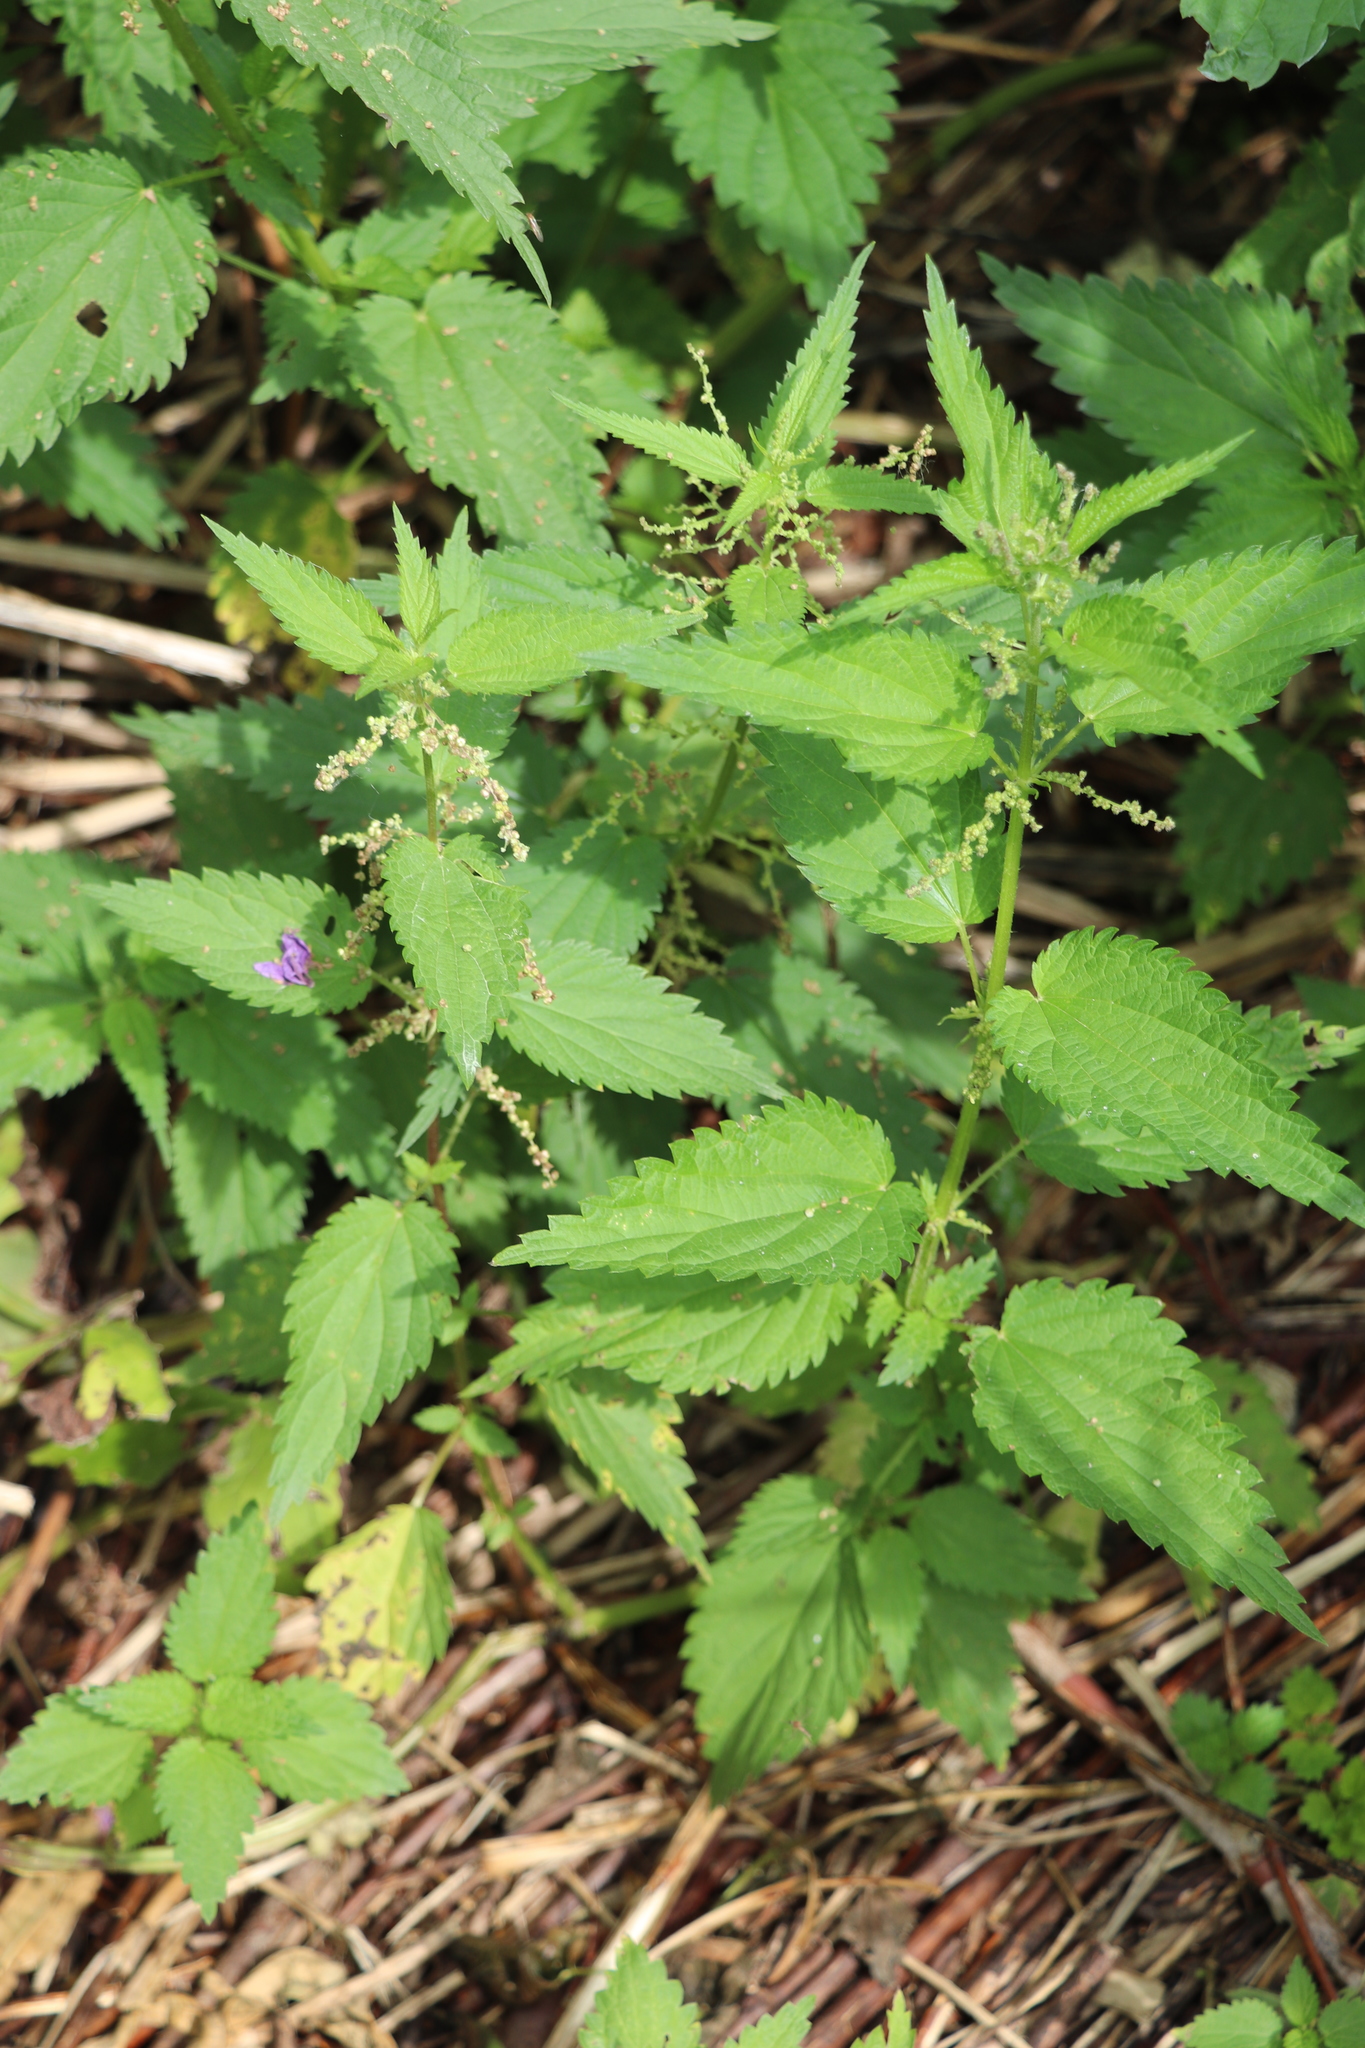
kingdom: Plantae
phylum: Tracheophyta
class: Magnoliopsida
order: Rosales
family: Urticaceae
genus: Urtica
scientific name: Urtica dioica
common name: Common nettle
